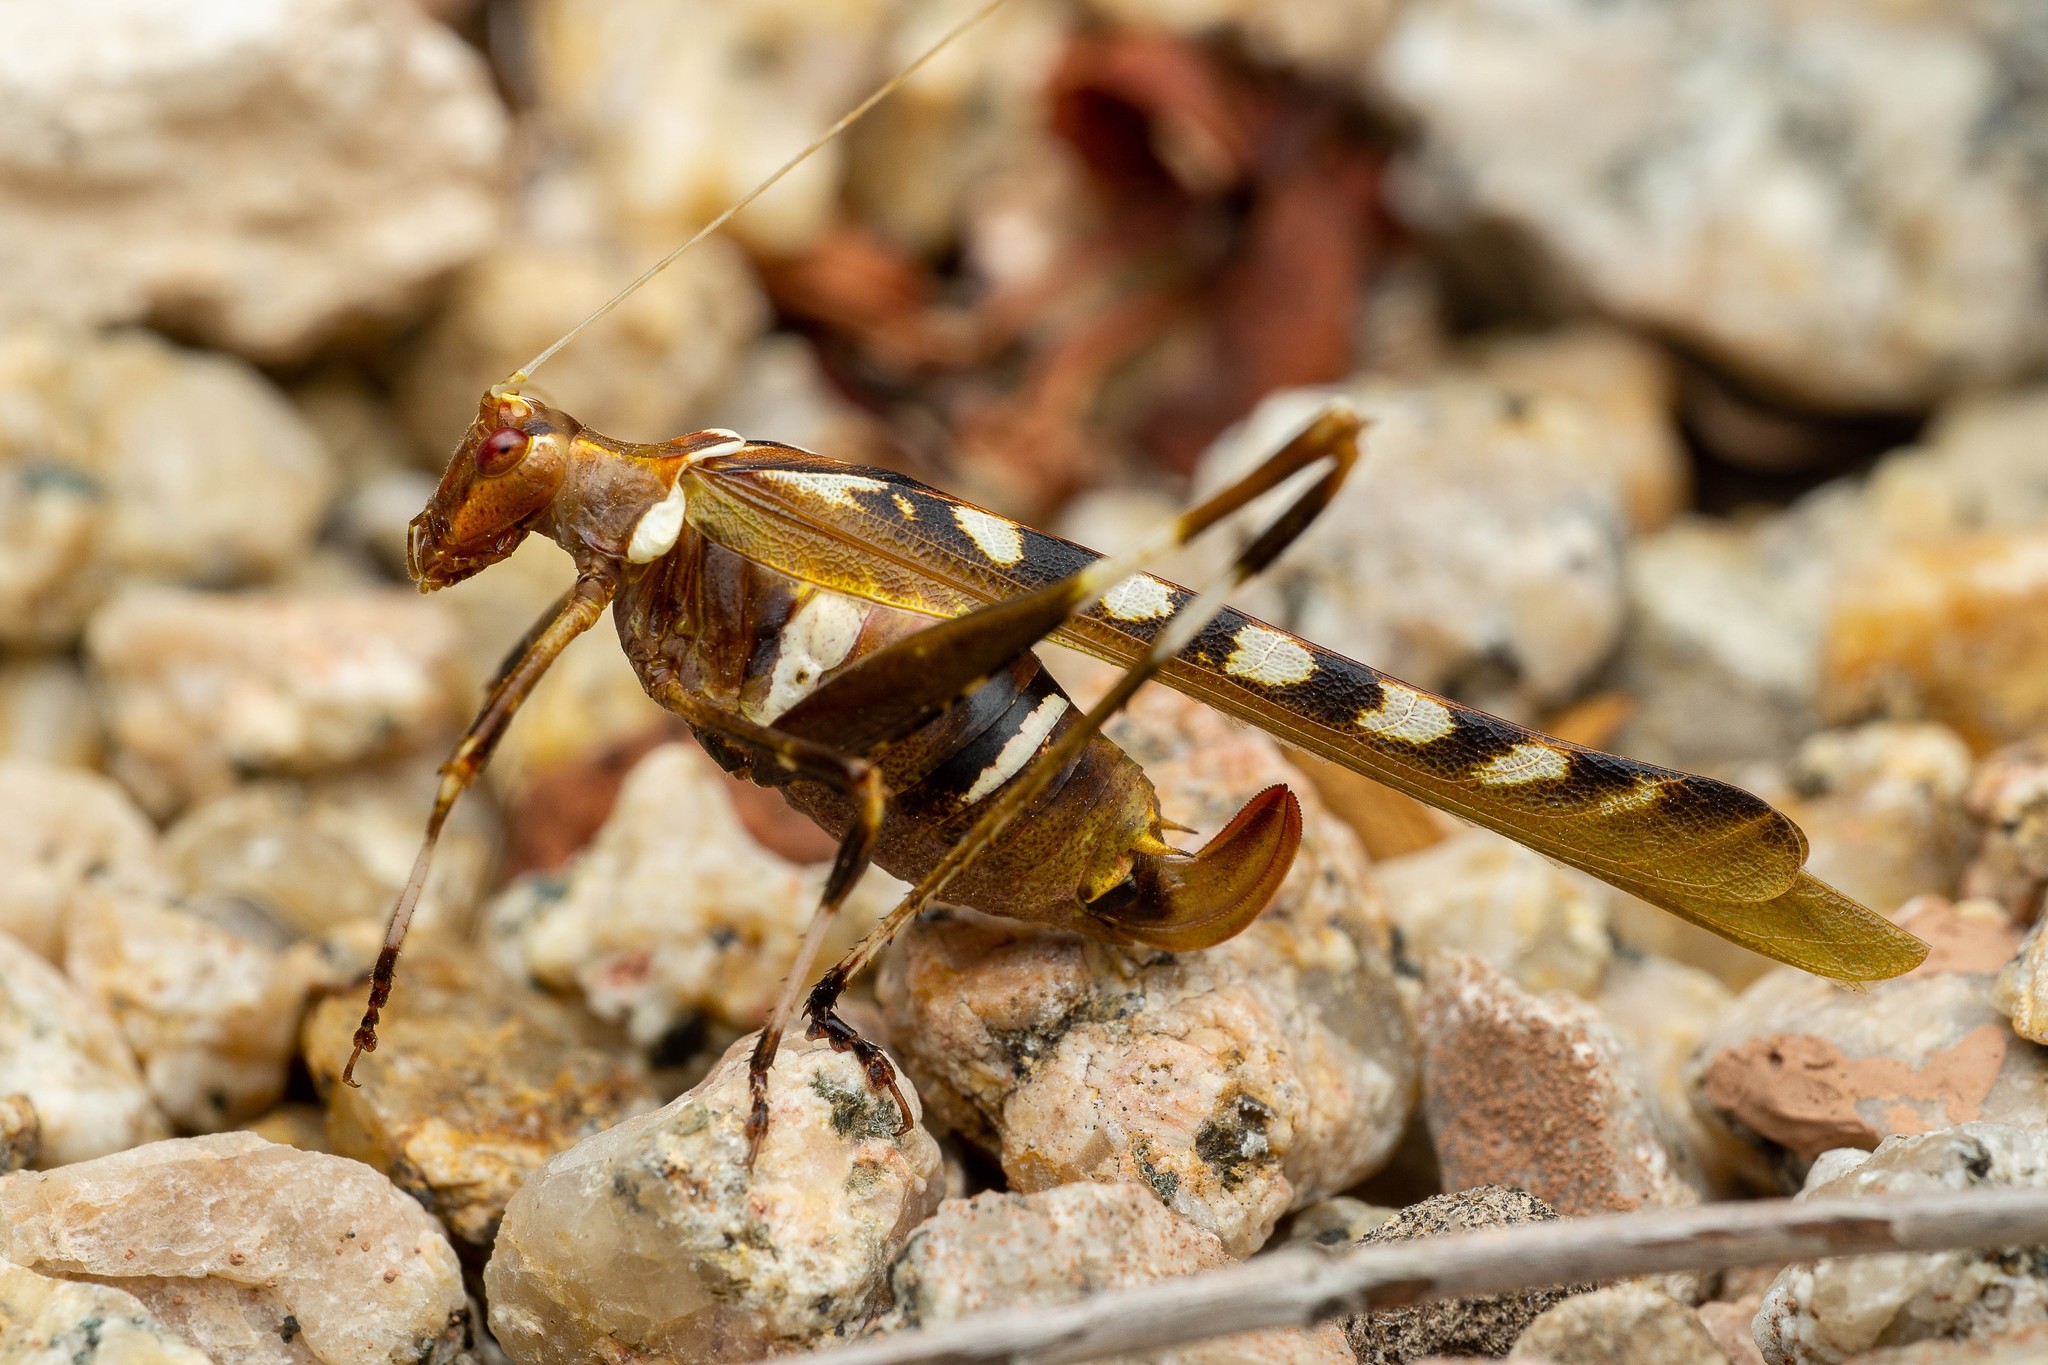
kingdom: Animalia
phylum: Arthropoda
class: Insecta
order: Orthoptera
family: Tettigoniidae
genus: Insara
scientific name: Insara covilleae
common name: Creosote bush katydid
